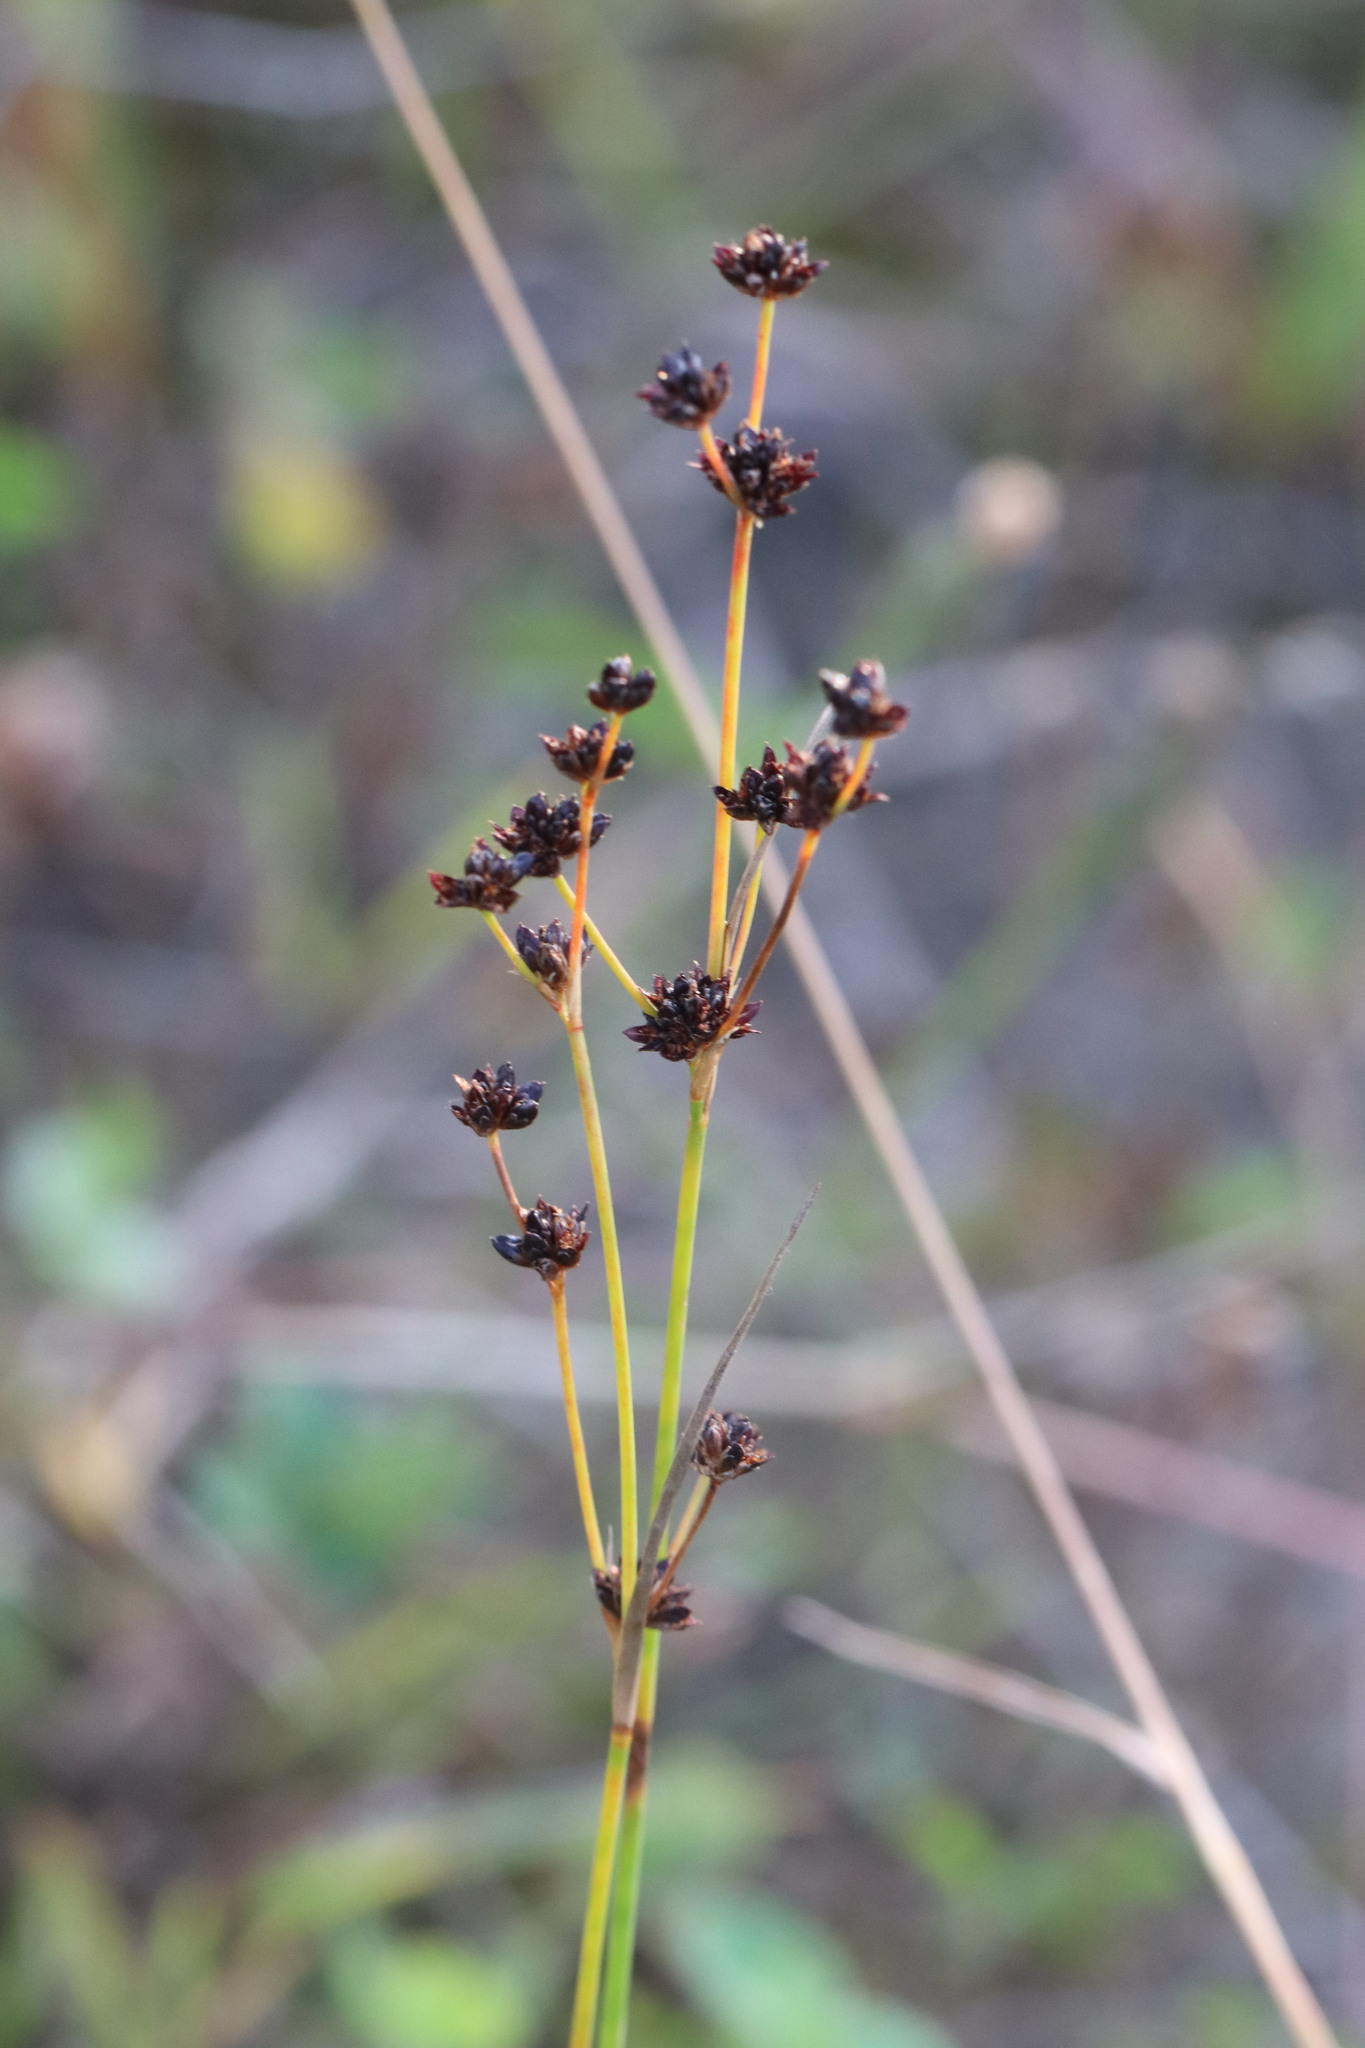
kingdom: Plantae
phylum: Tracheophyta
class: Liliopsida
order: Poales
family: Juncaceae
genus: Juncus
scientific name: Juncus alpinoarticulatus
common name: Alpine rush
